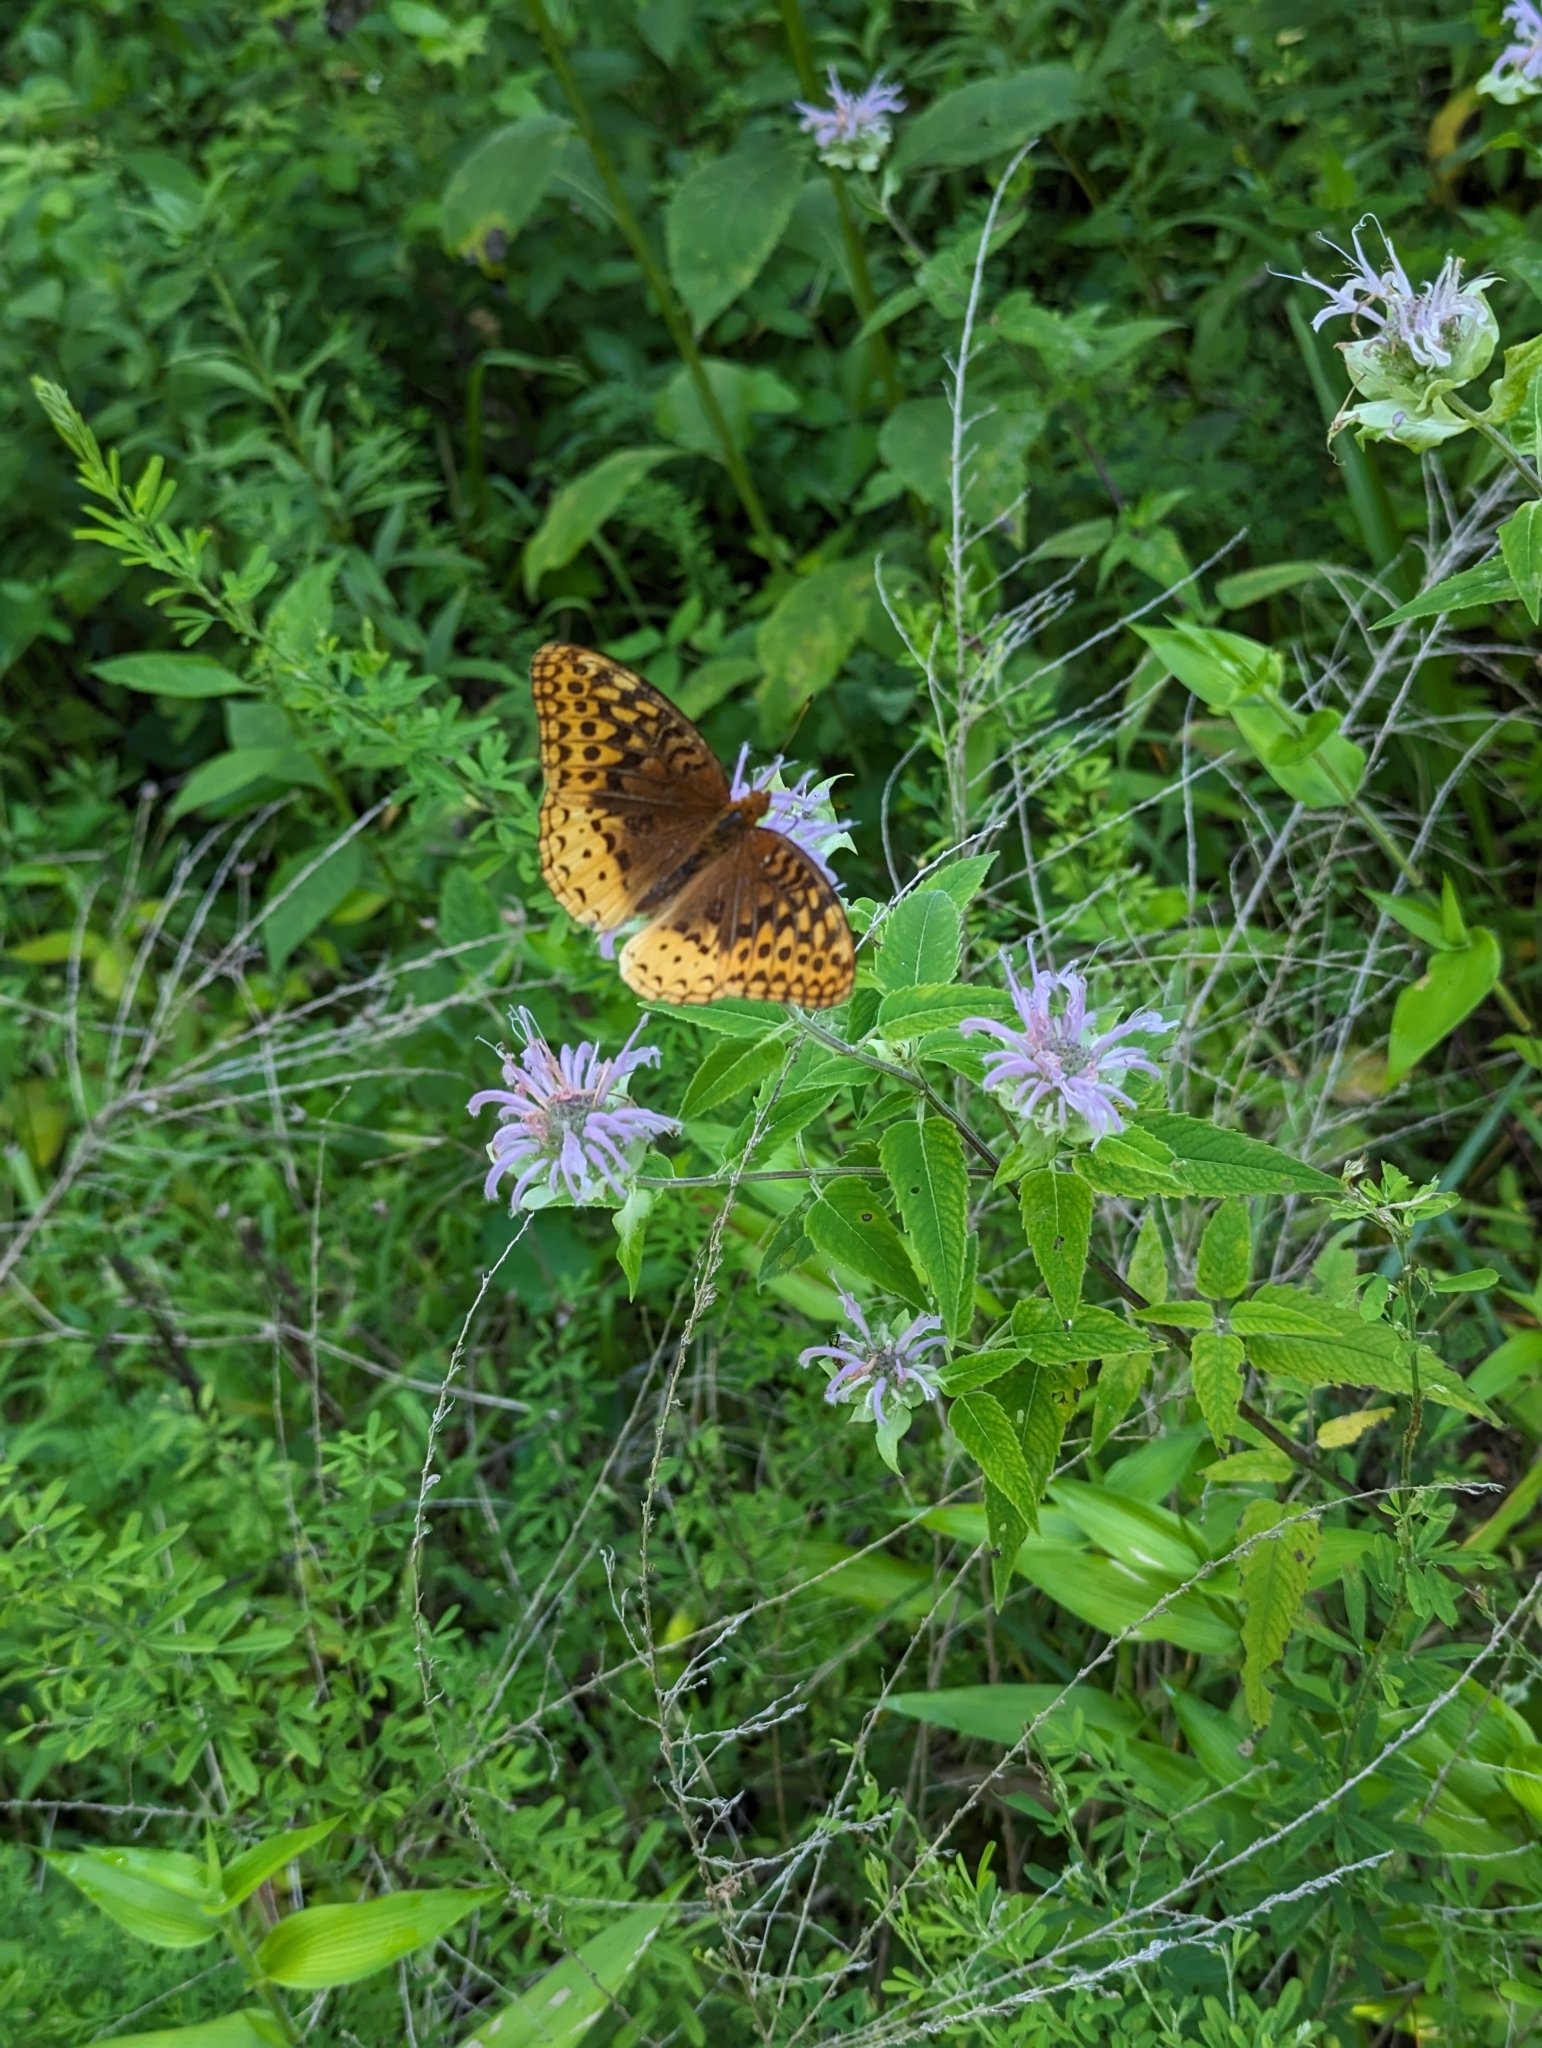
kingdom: Animalia
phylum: Arthropoda
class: Insecta
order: Lepidoptera
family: Nymphalidae
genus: Speyeria
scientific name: Speyeria cybele
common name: Great spangled fritillary
